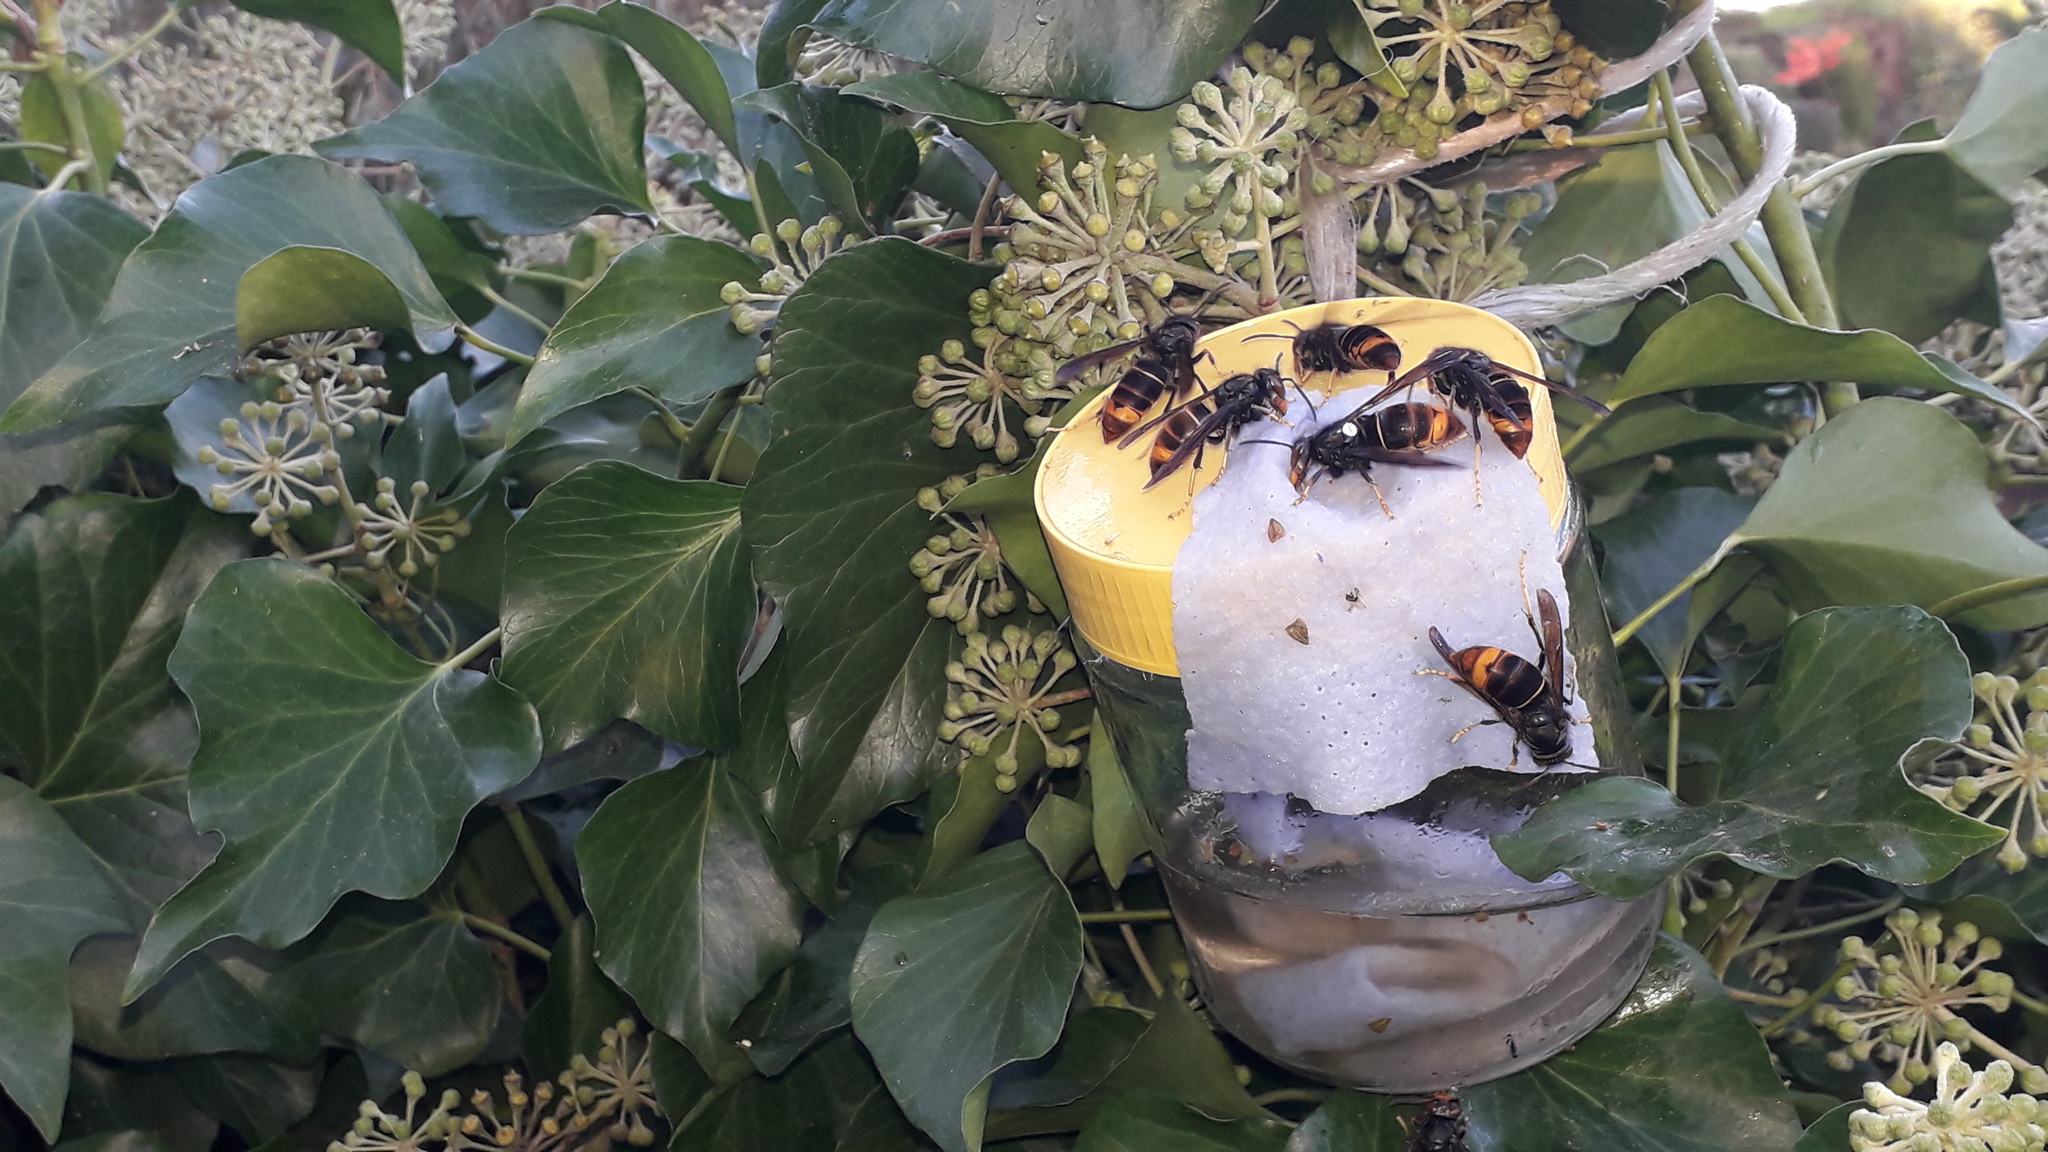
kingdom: Animalia
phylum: Arthropoda
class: Insecta
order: Hymenoptera
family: Vespidae
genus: Vespa
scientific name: Vespa velutina
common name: Asian hornet
